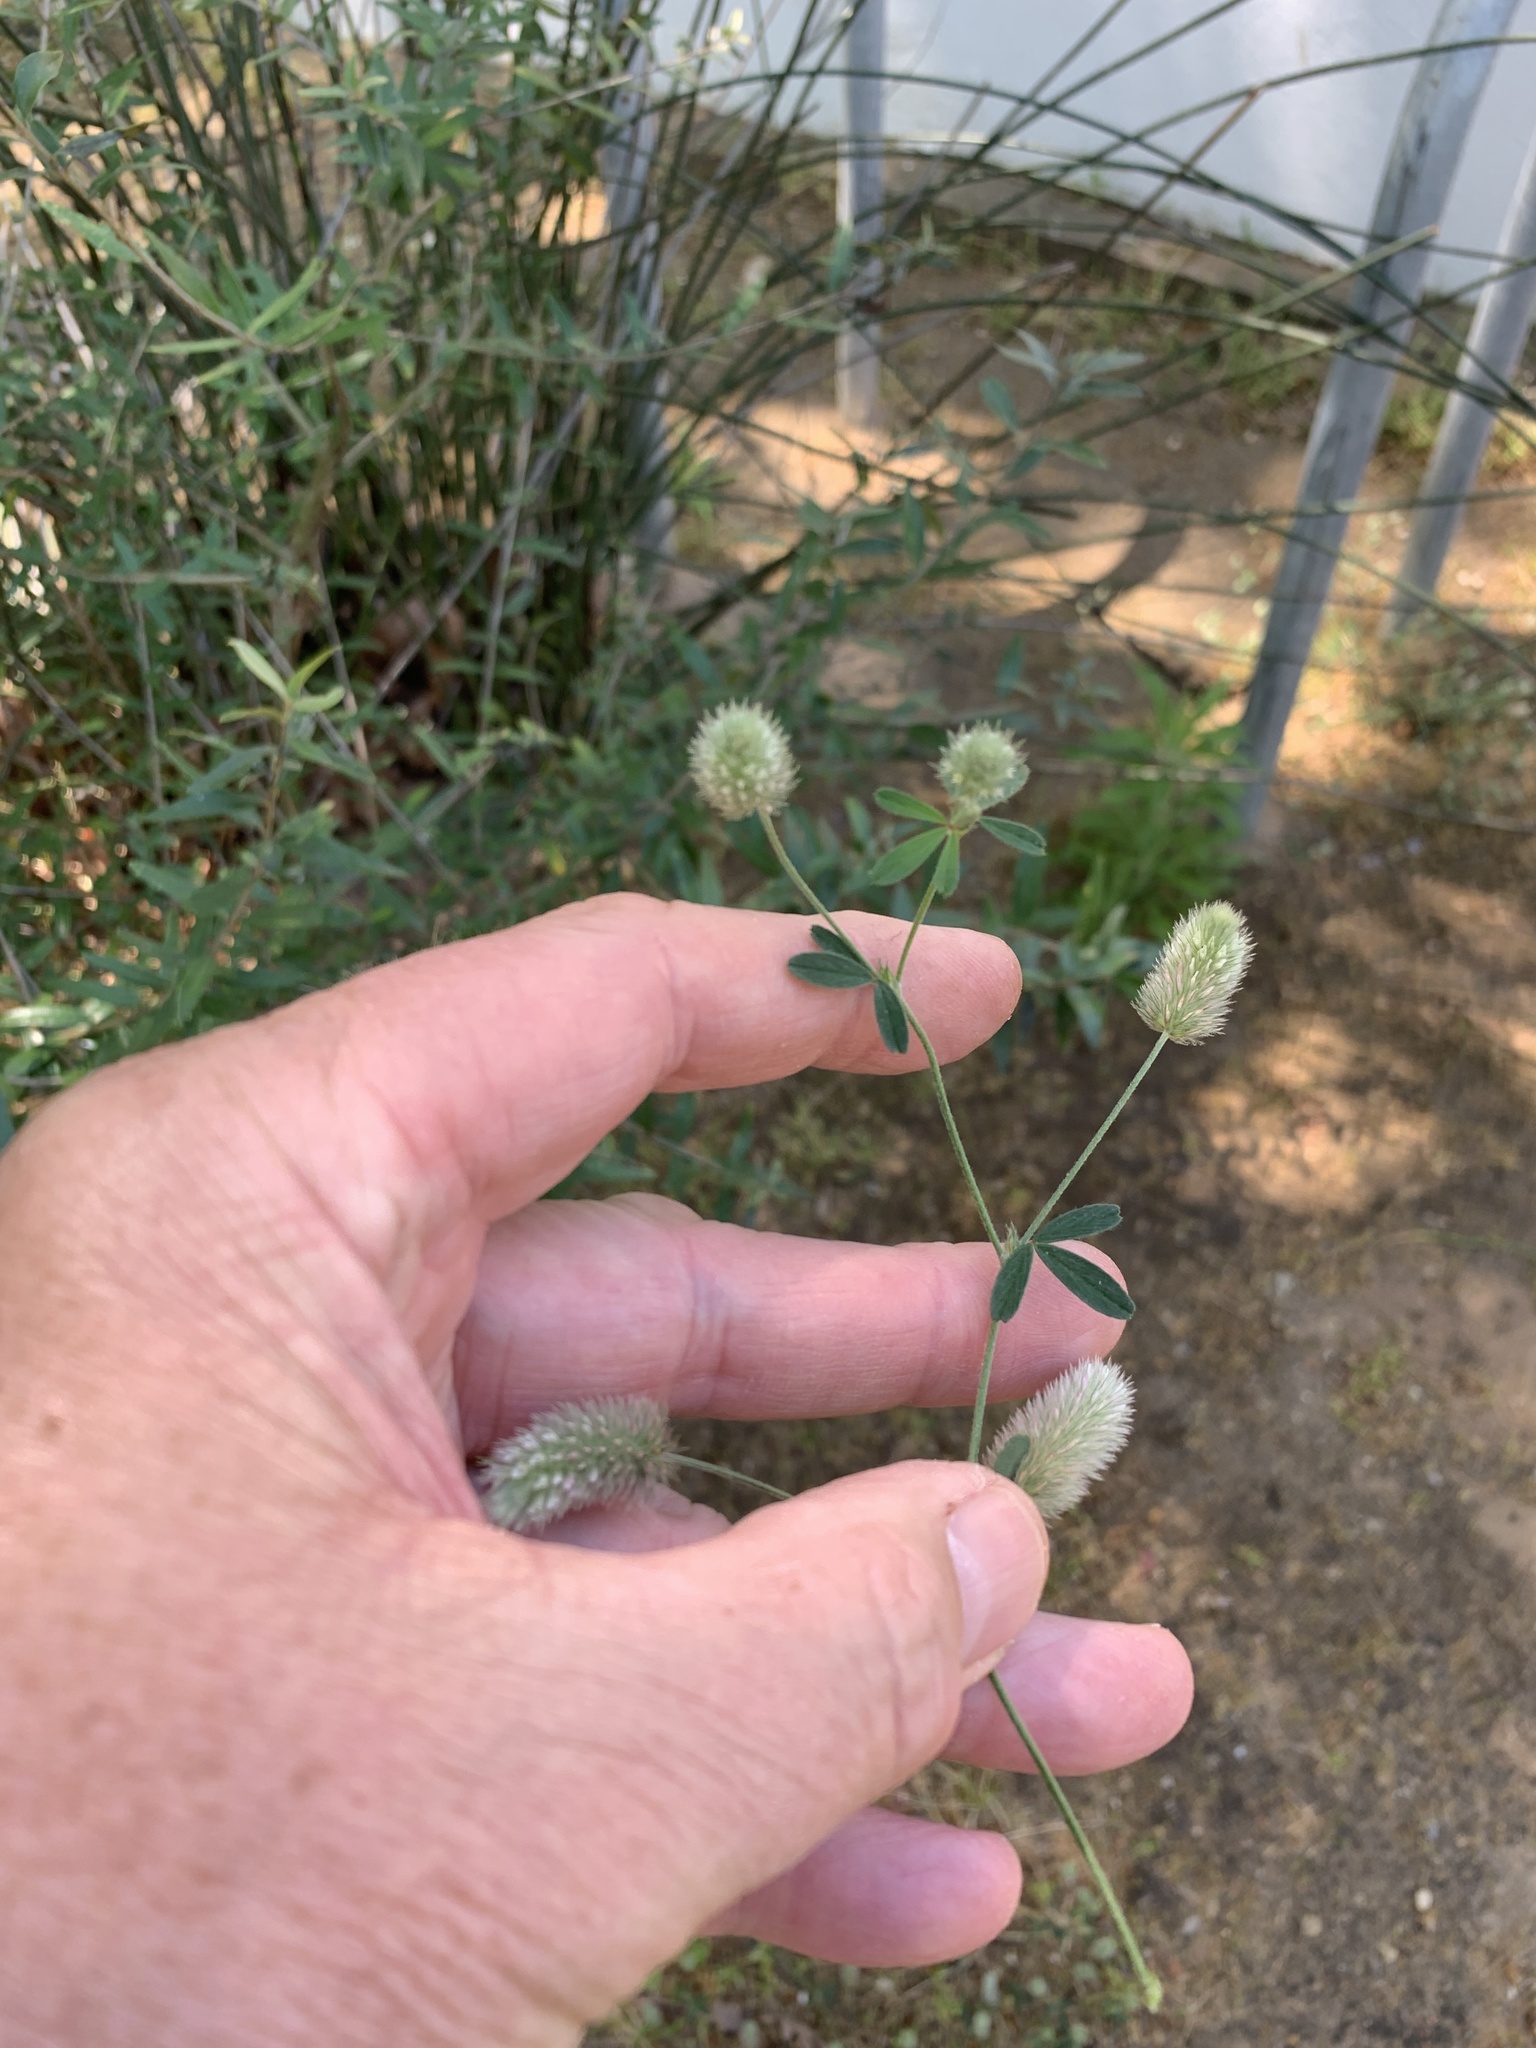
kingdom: Plantae
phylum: Tracheophyta
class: Magnoliopsida
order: Fabales
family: Fabaceae
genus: Trifolium
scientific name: Trifolium arvense
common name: Hare's-foot clover
